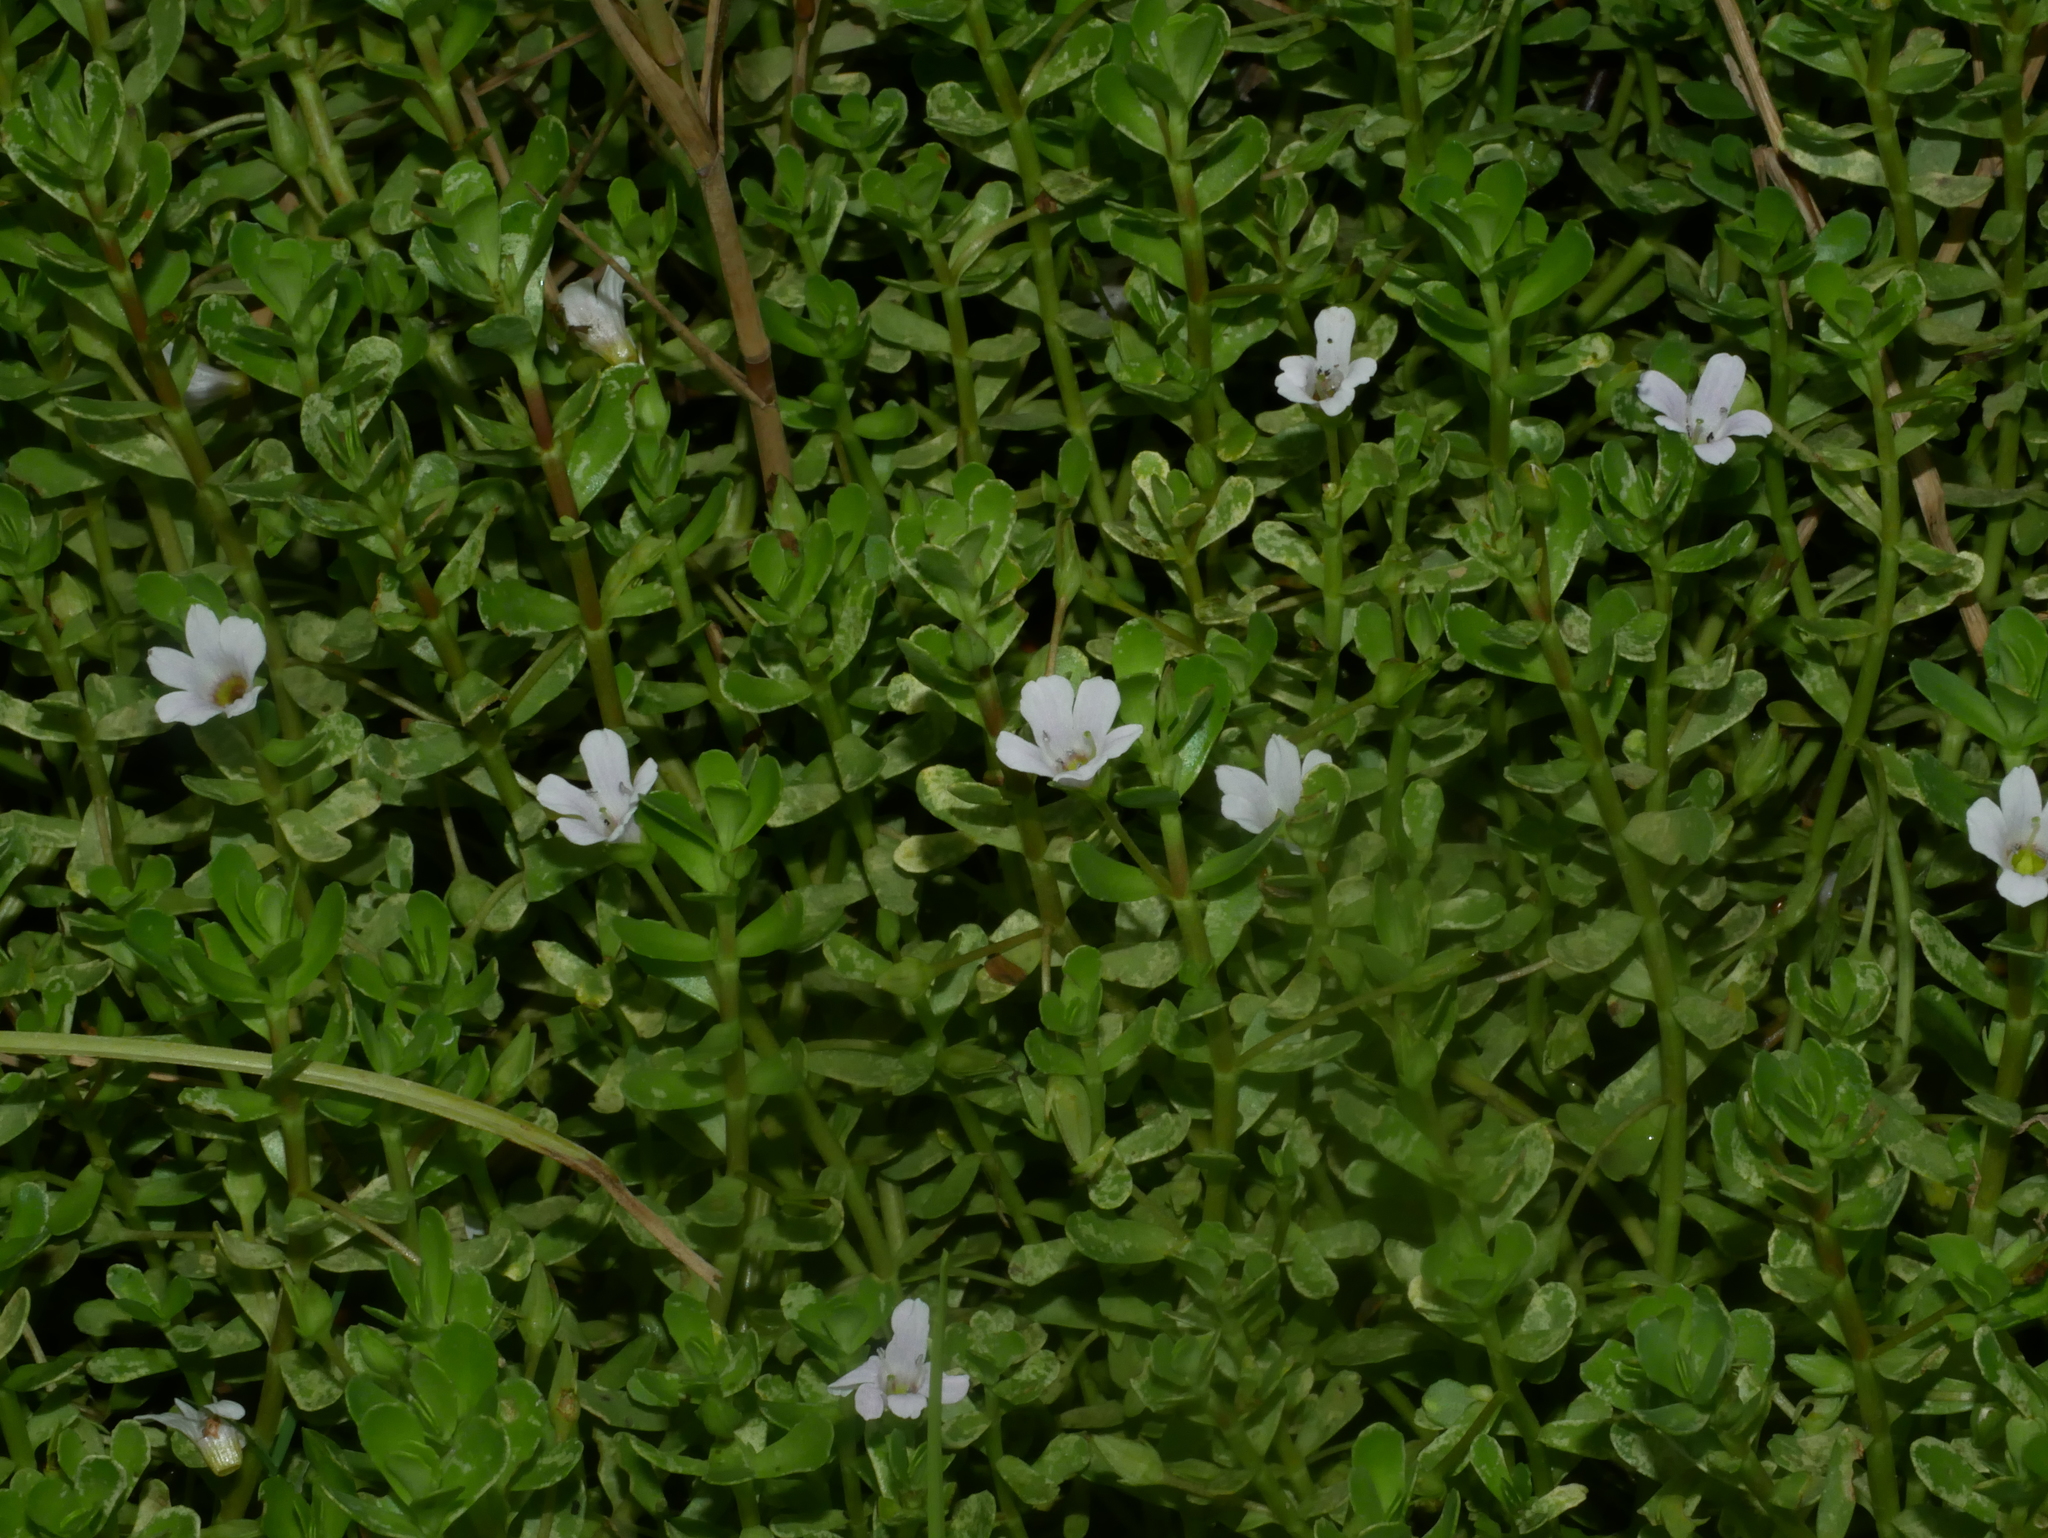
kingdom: Plantae
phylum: Tracheophyta
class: Magnoliopsida
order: Lamiales
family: Plantaginaceae
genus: Bacopa
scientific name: Bacopa monnieri
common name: Indian-pennywort
